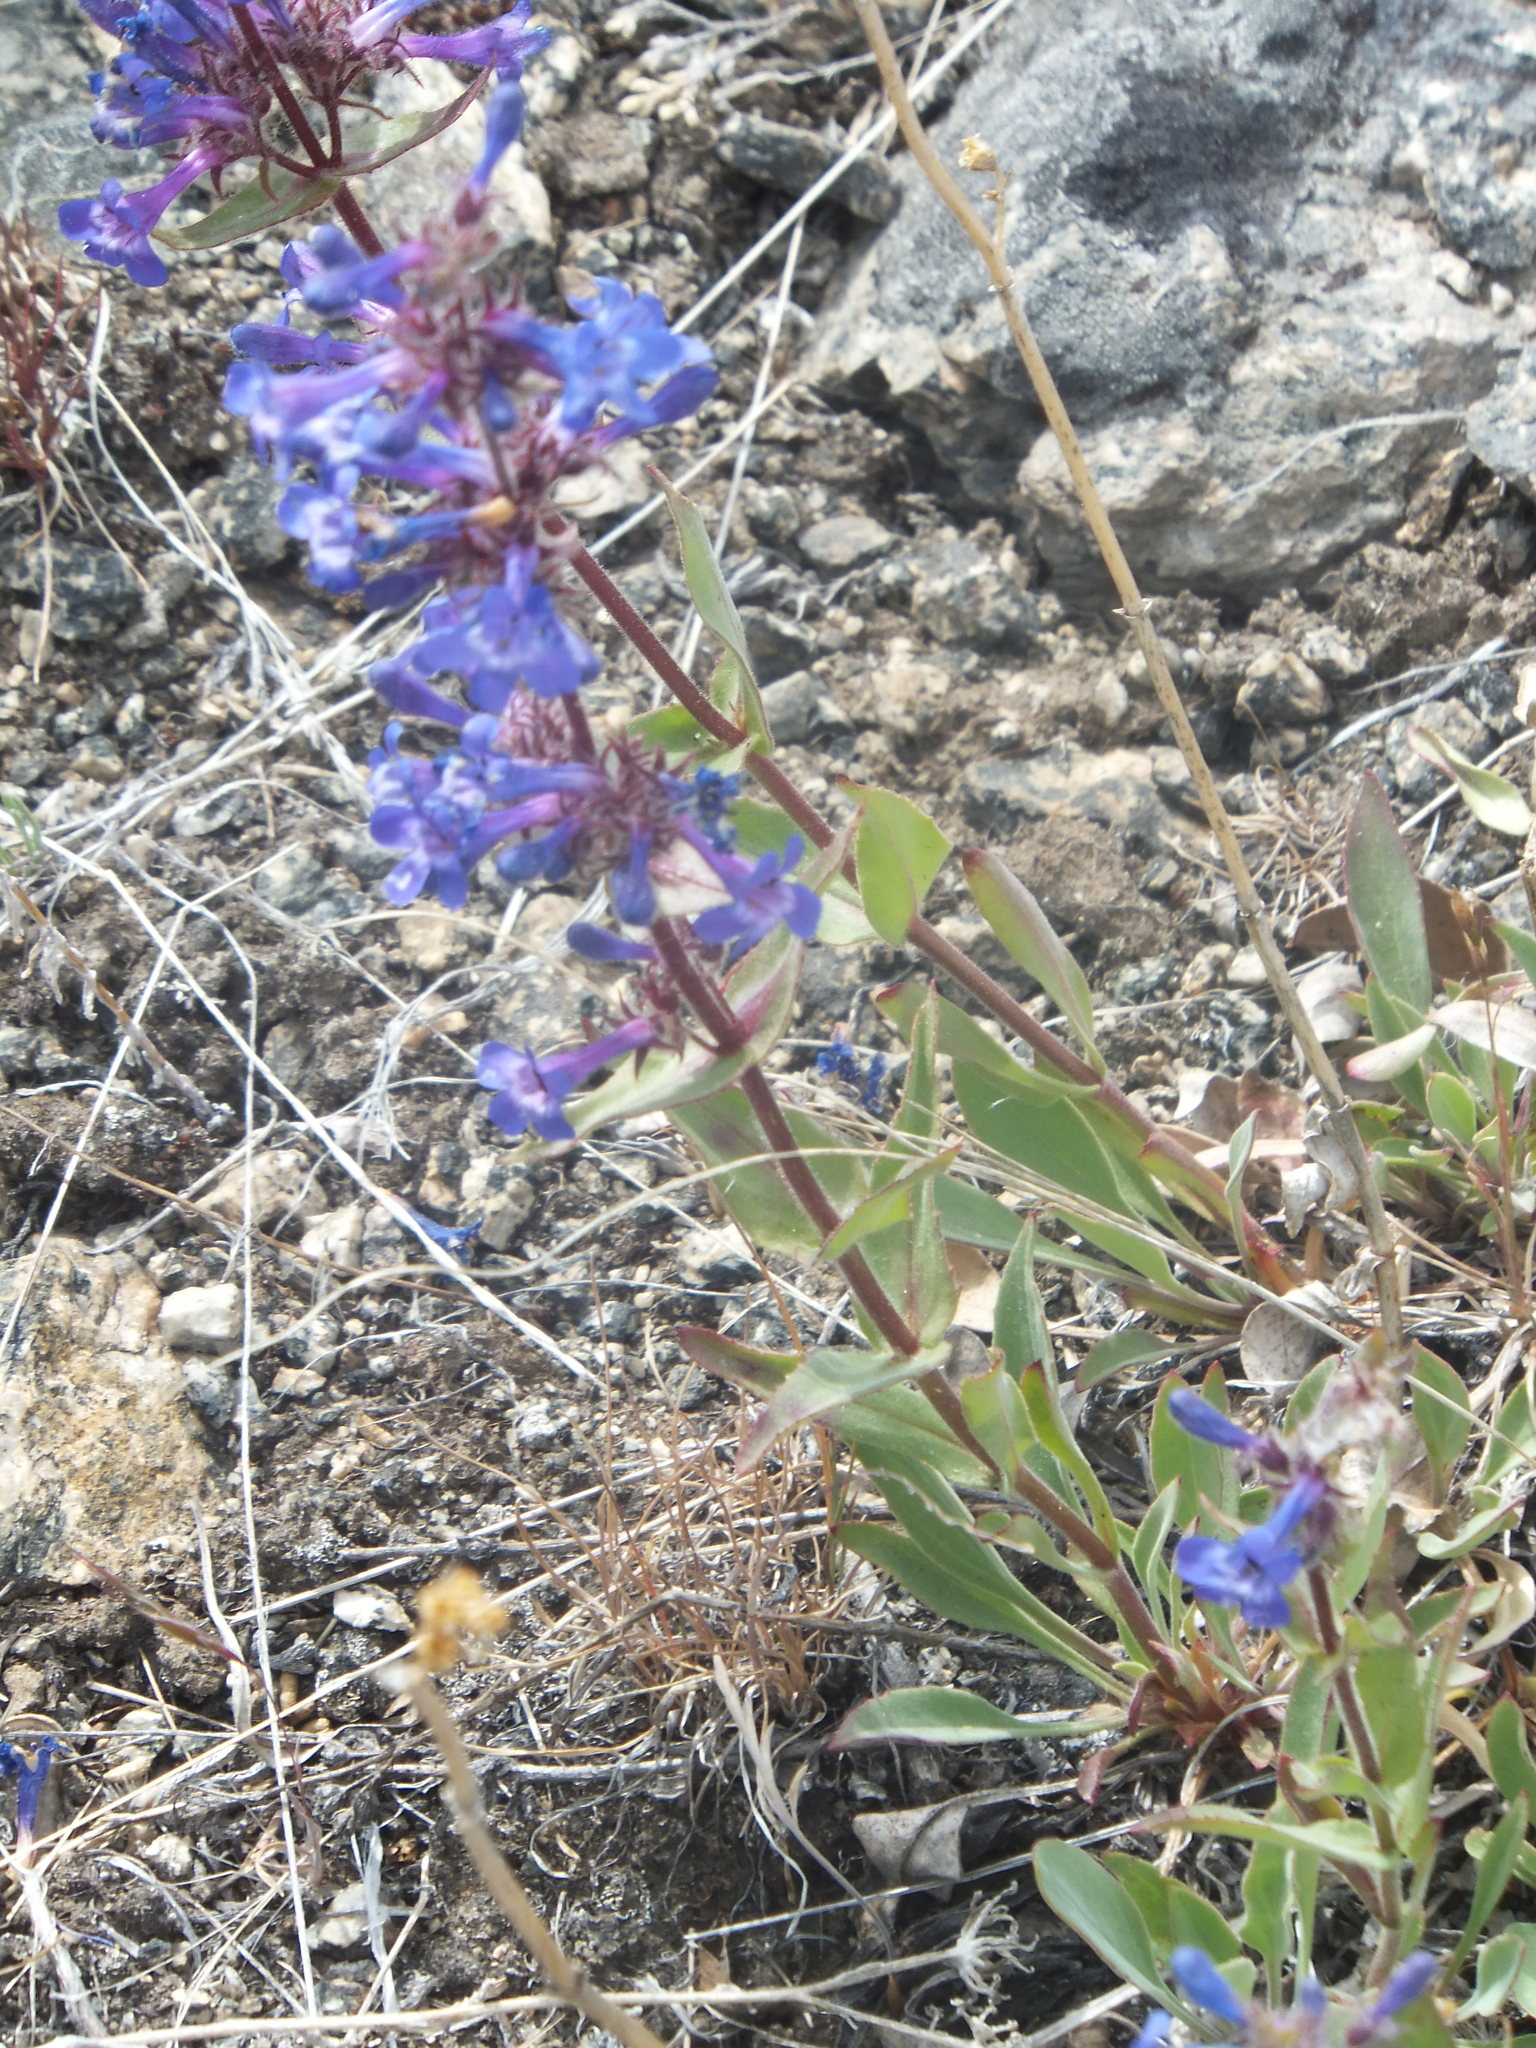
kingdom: Plantae
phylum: Tracheophyta
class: Magnoliopsida
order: Lamiales
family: Plantaginaceae
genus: Penstemon
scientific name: Penstemon pruinosus
